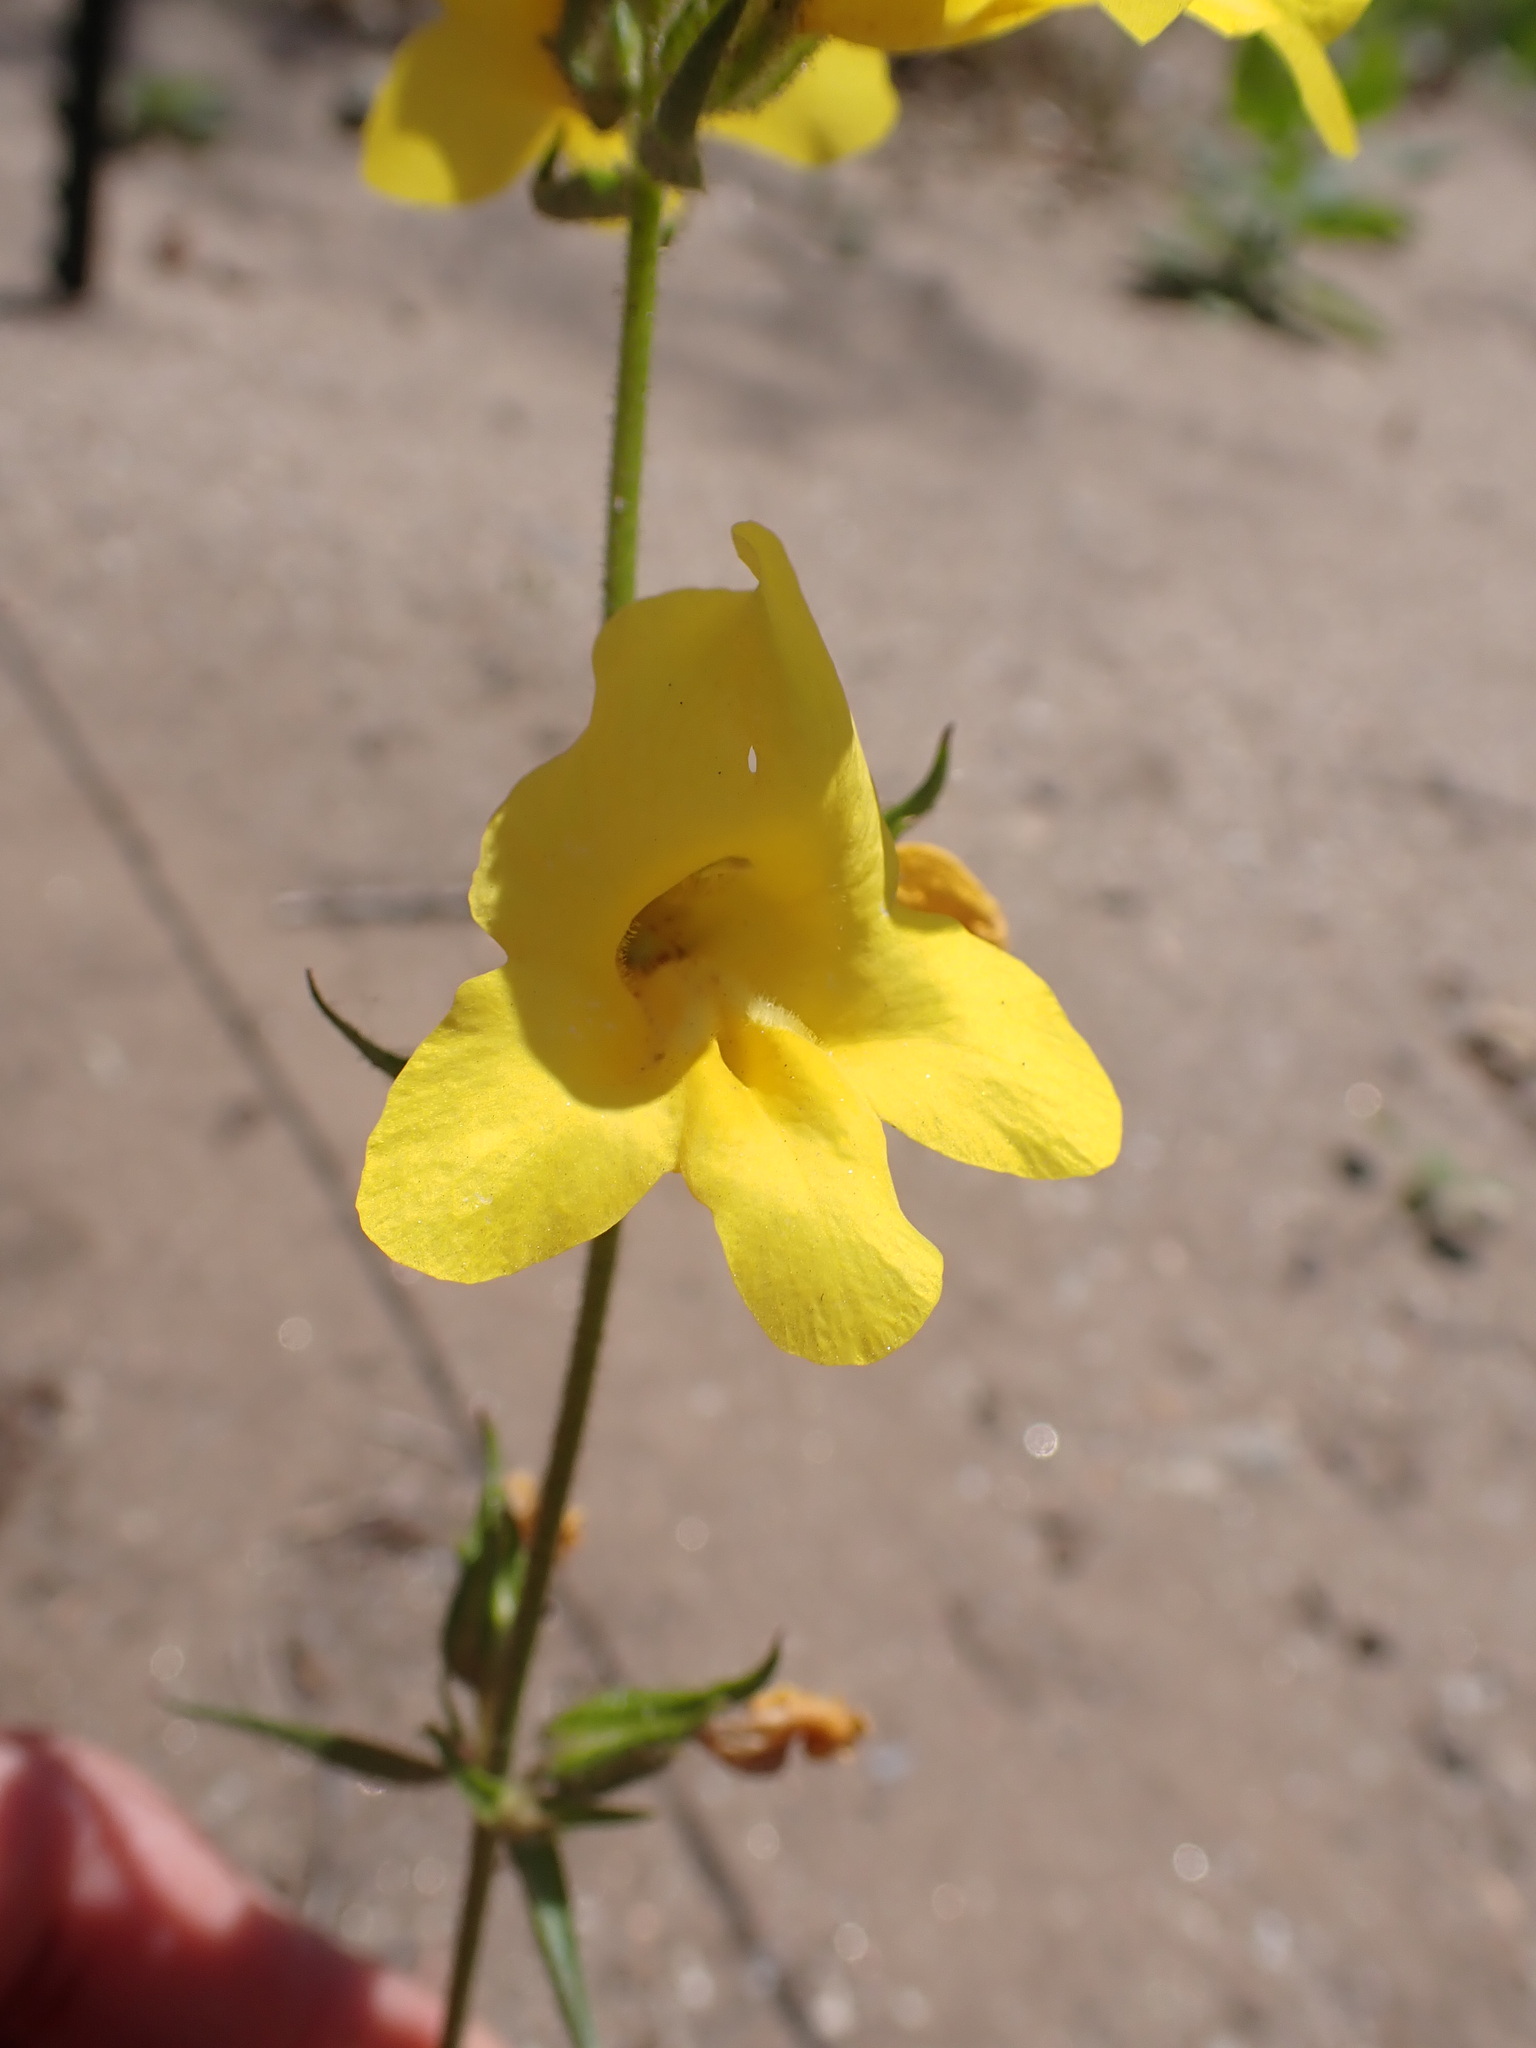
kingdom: Plantae
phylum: Tracheophyta
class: Magnoliopsida
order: Lamiales
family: Phrymaceae
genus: Diplacus
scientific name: Diplacus brevipes
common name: Wide-throat yellow monkey-flower
